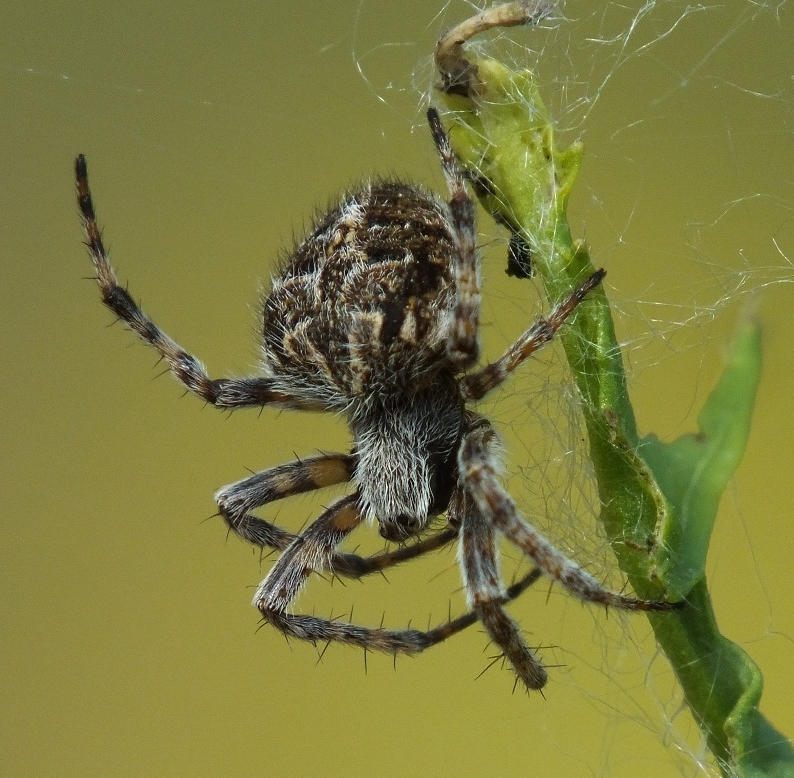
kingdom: Animalia
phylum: Arthropoda
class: Arachnida
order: Araneae
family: Araneidae
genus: Agalenatea
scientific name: Agalenatea redii
